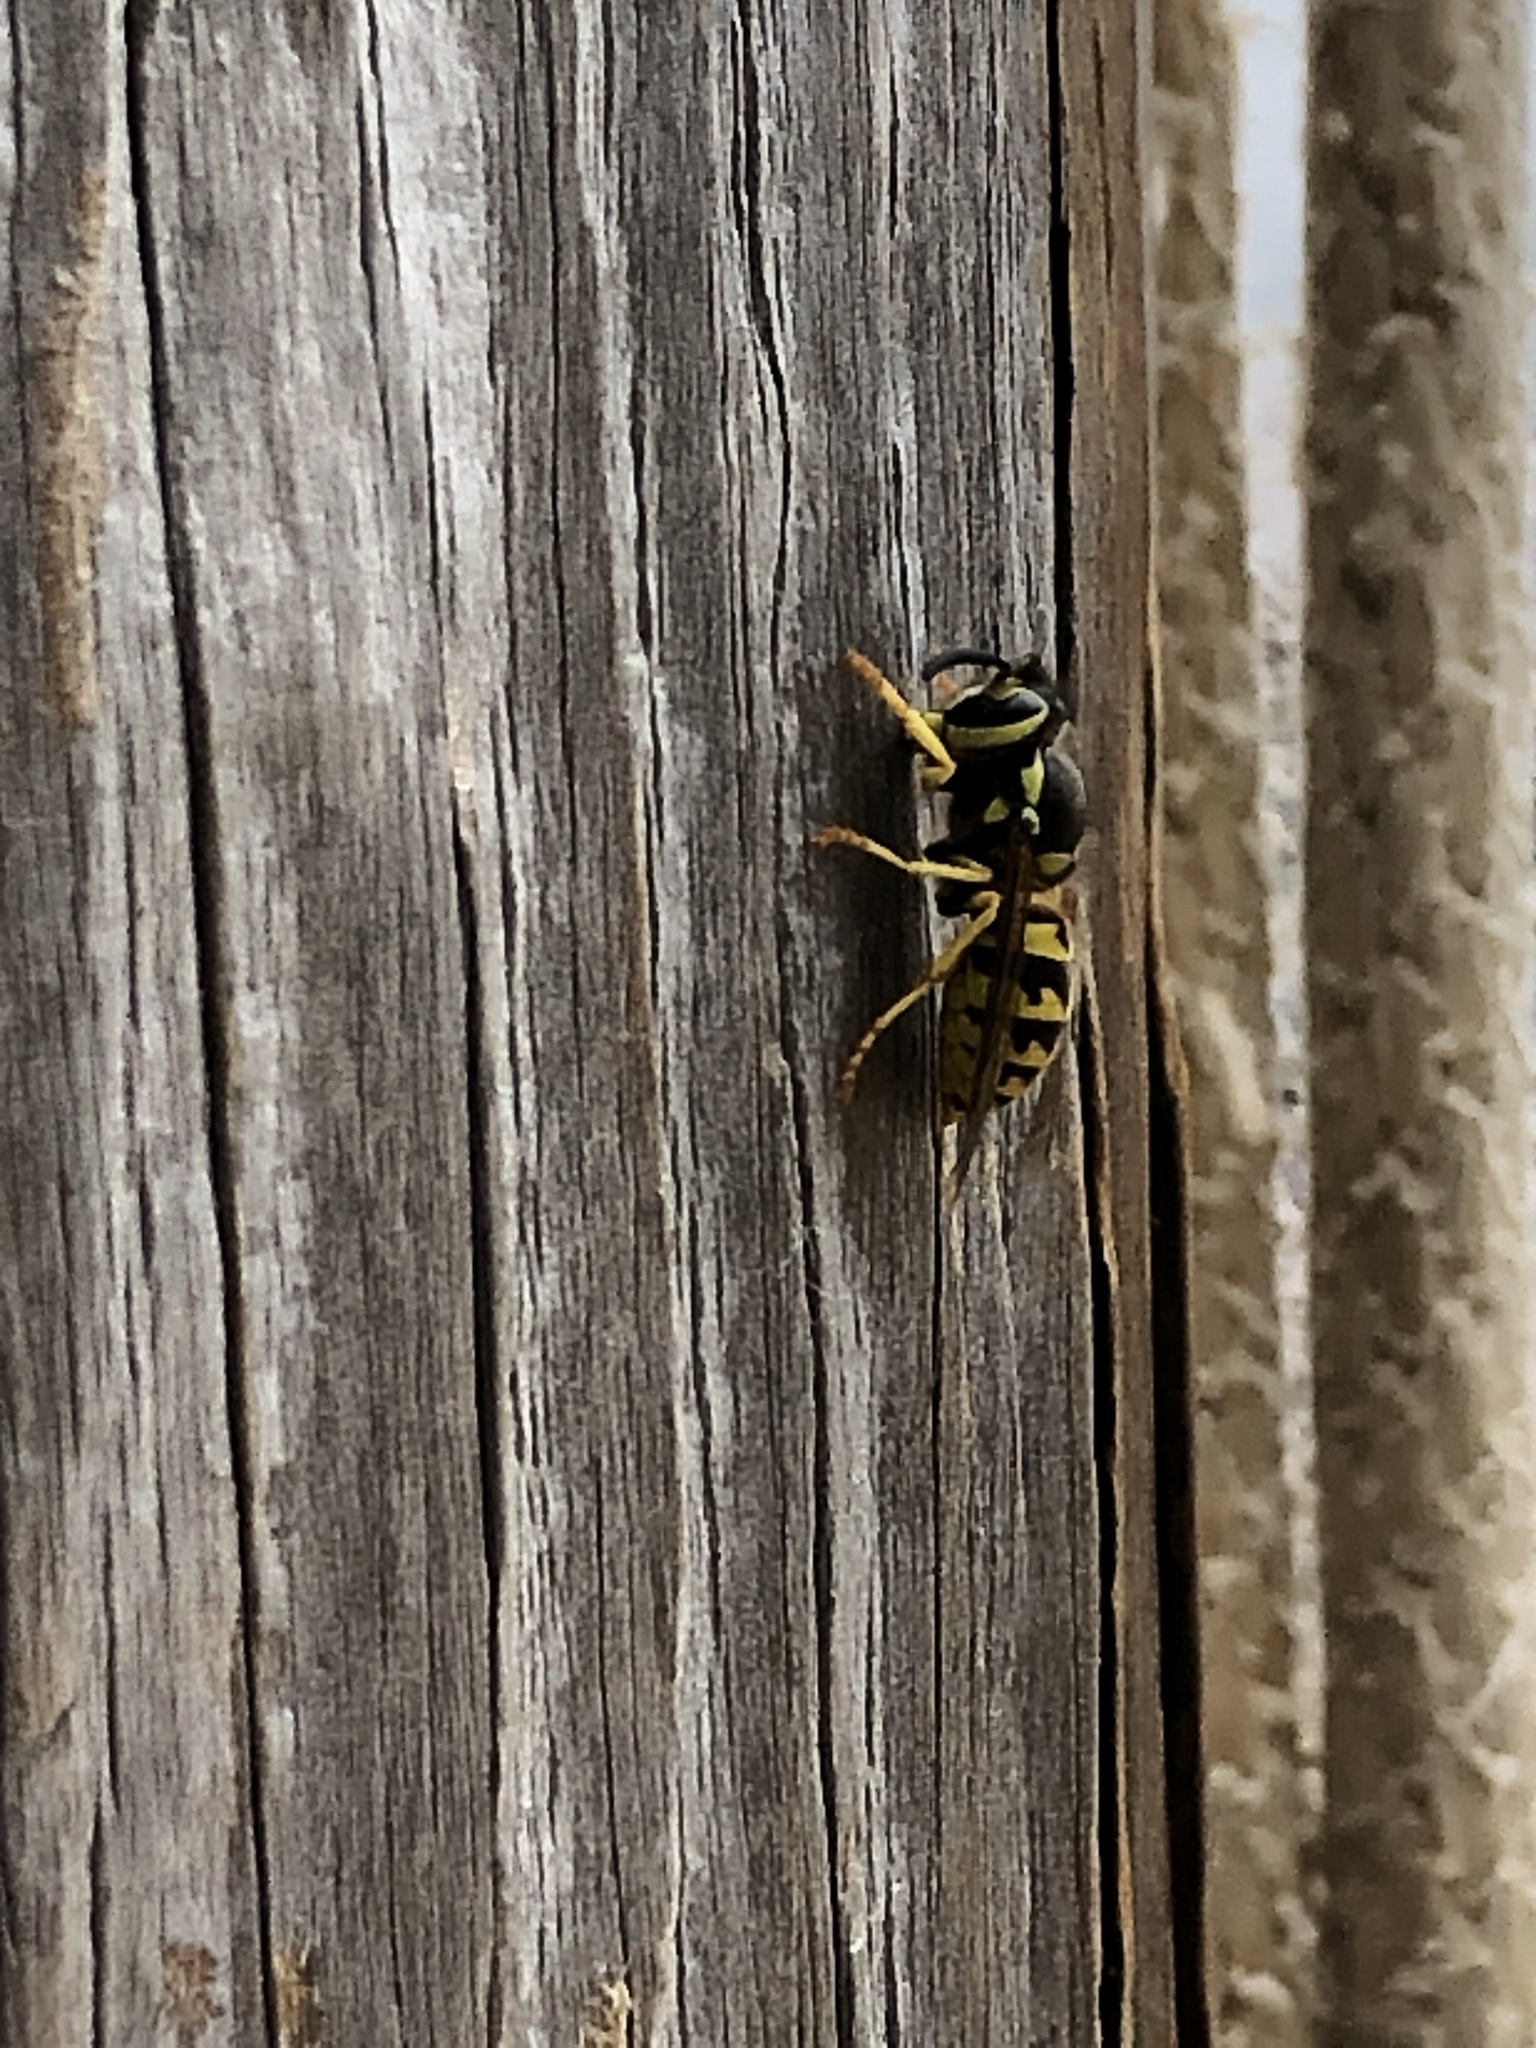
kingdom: Animalia
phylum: Arthropoda
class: Insecta
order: Hymenoptera
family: Vespidae
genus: Vespula
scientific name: Vespula pensylvanica
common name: Western yellowjacket
